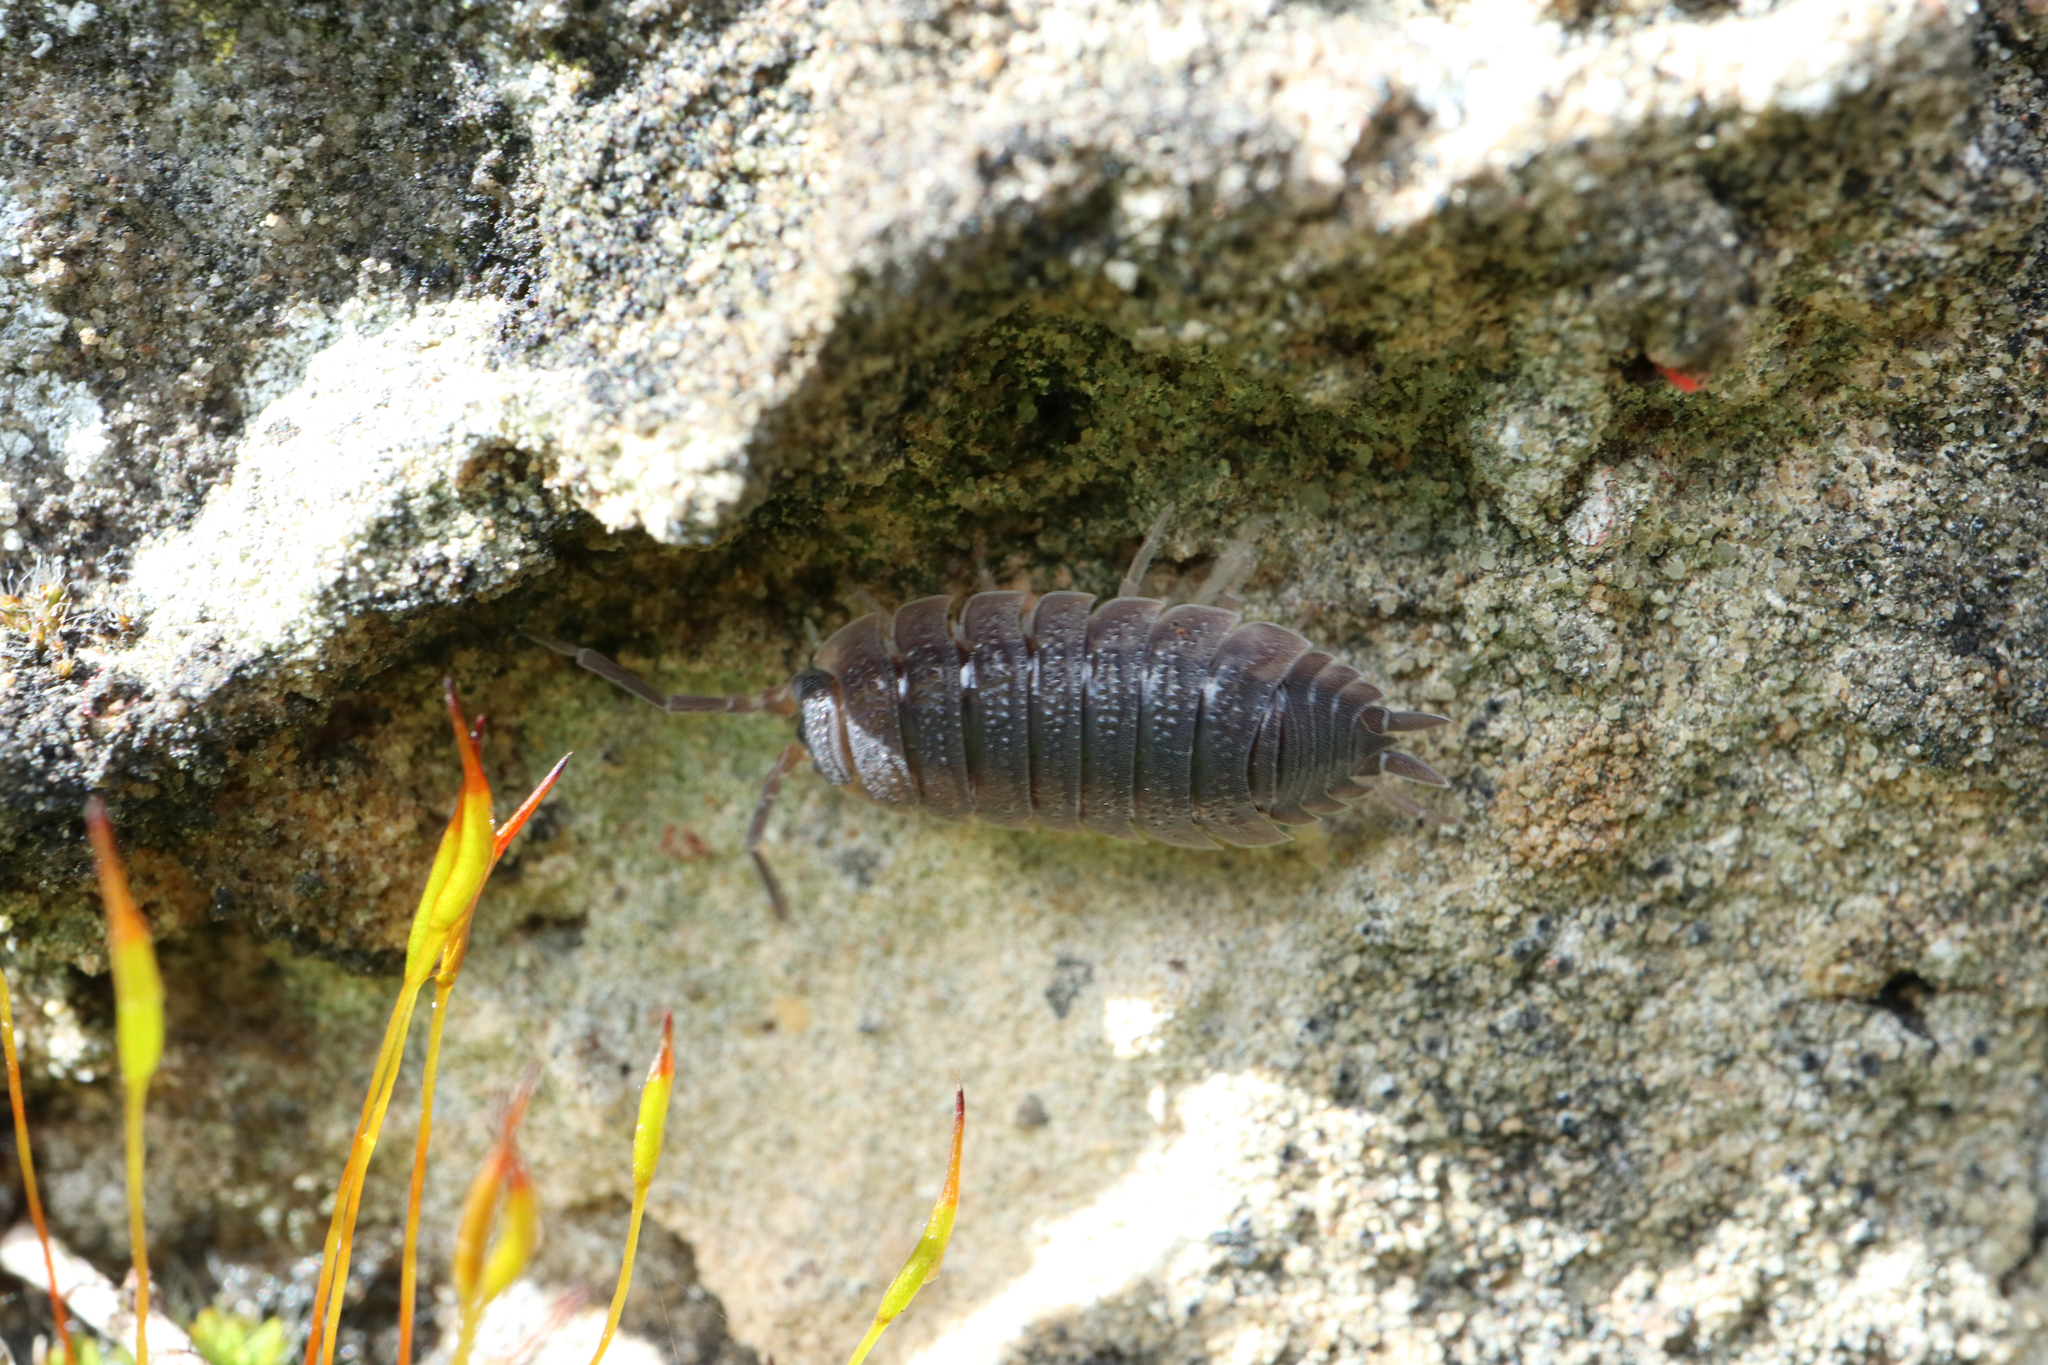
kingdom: Animalia
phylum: Arthropoda
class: Malacostraca
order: Isopoda
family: Porcellionidae
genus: Porcellio
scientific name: Porcellio scaber
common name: Common rough woodlouse
